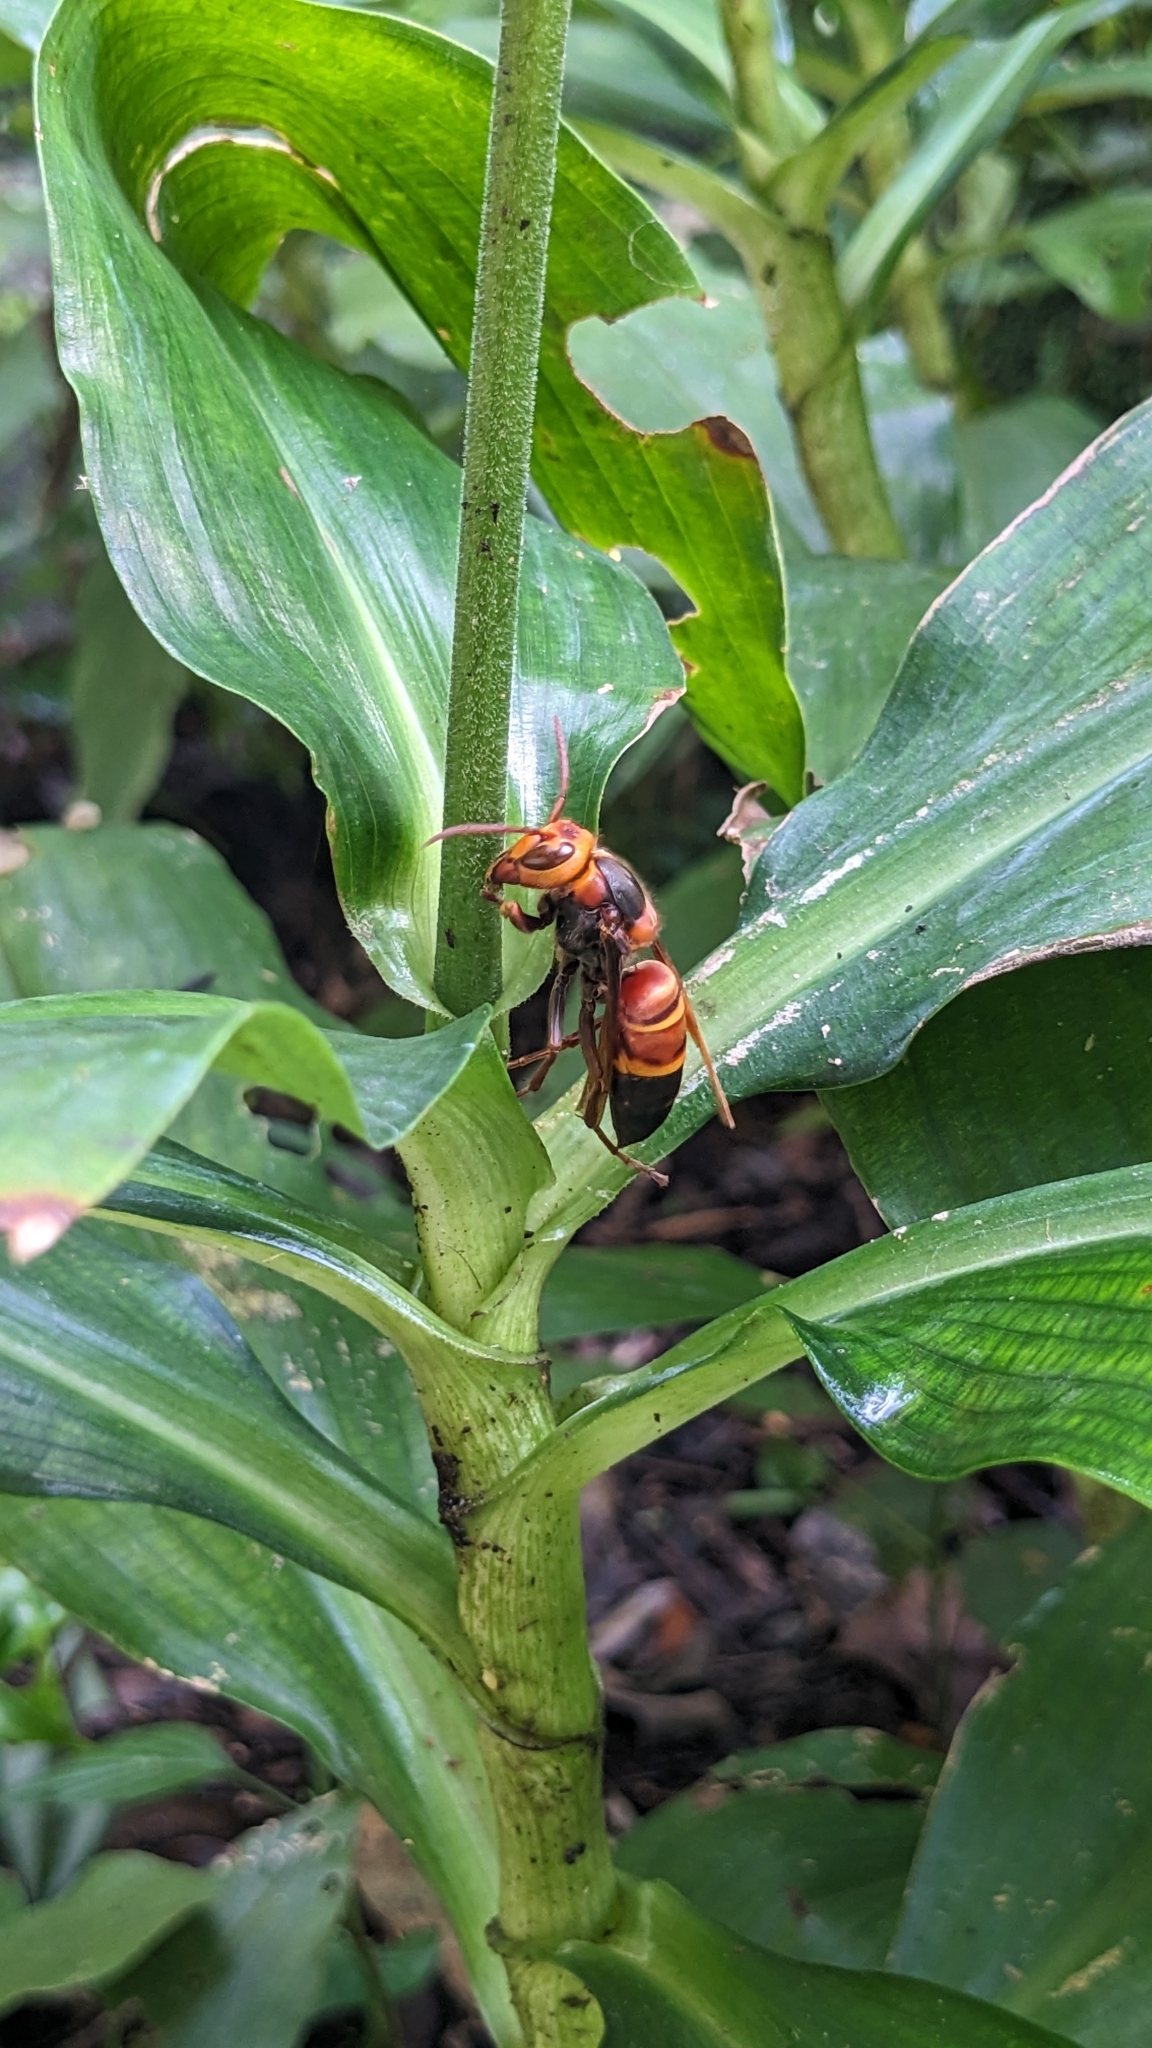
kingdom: Animalia
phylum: Arthropoda
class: Insecta
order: Hymenoptera
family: Vespidae
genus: Vespa
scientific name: Vespa ducalis
